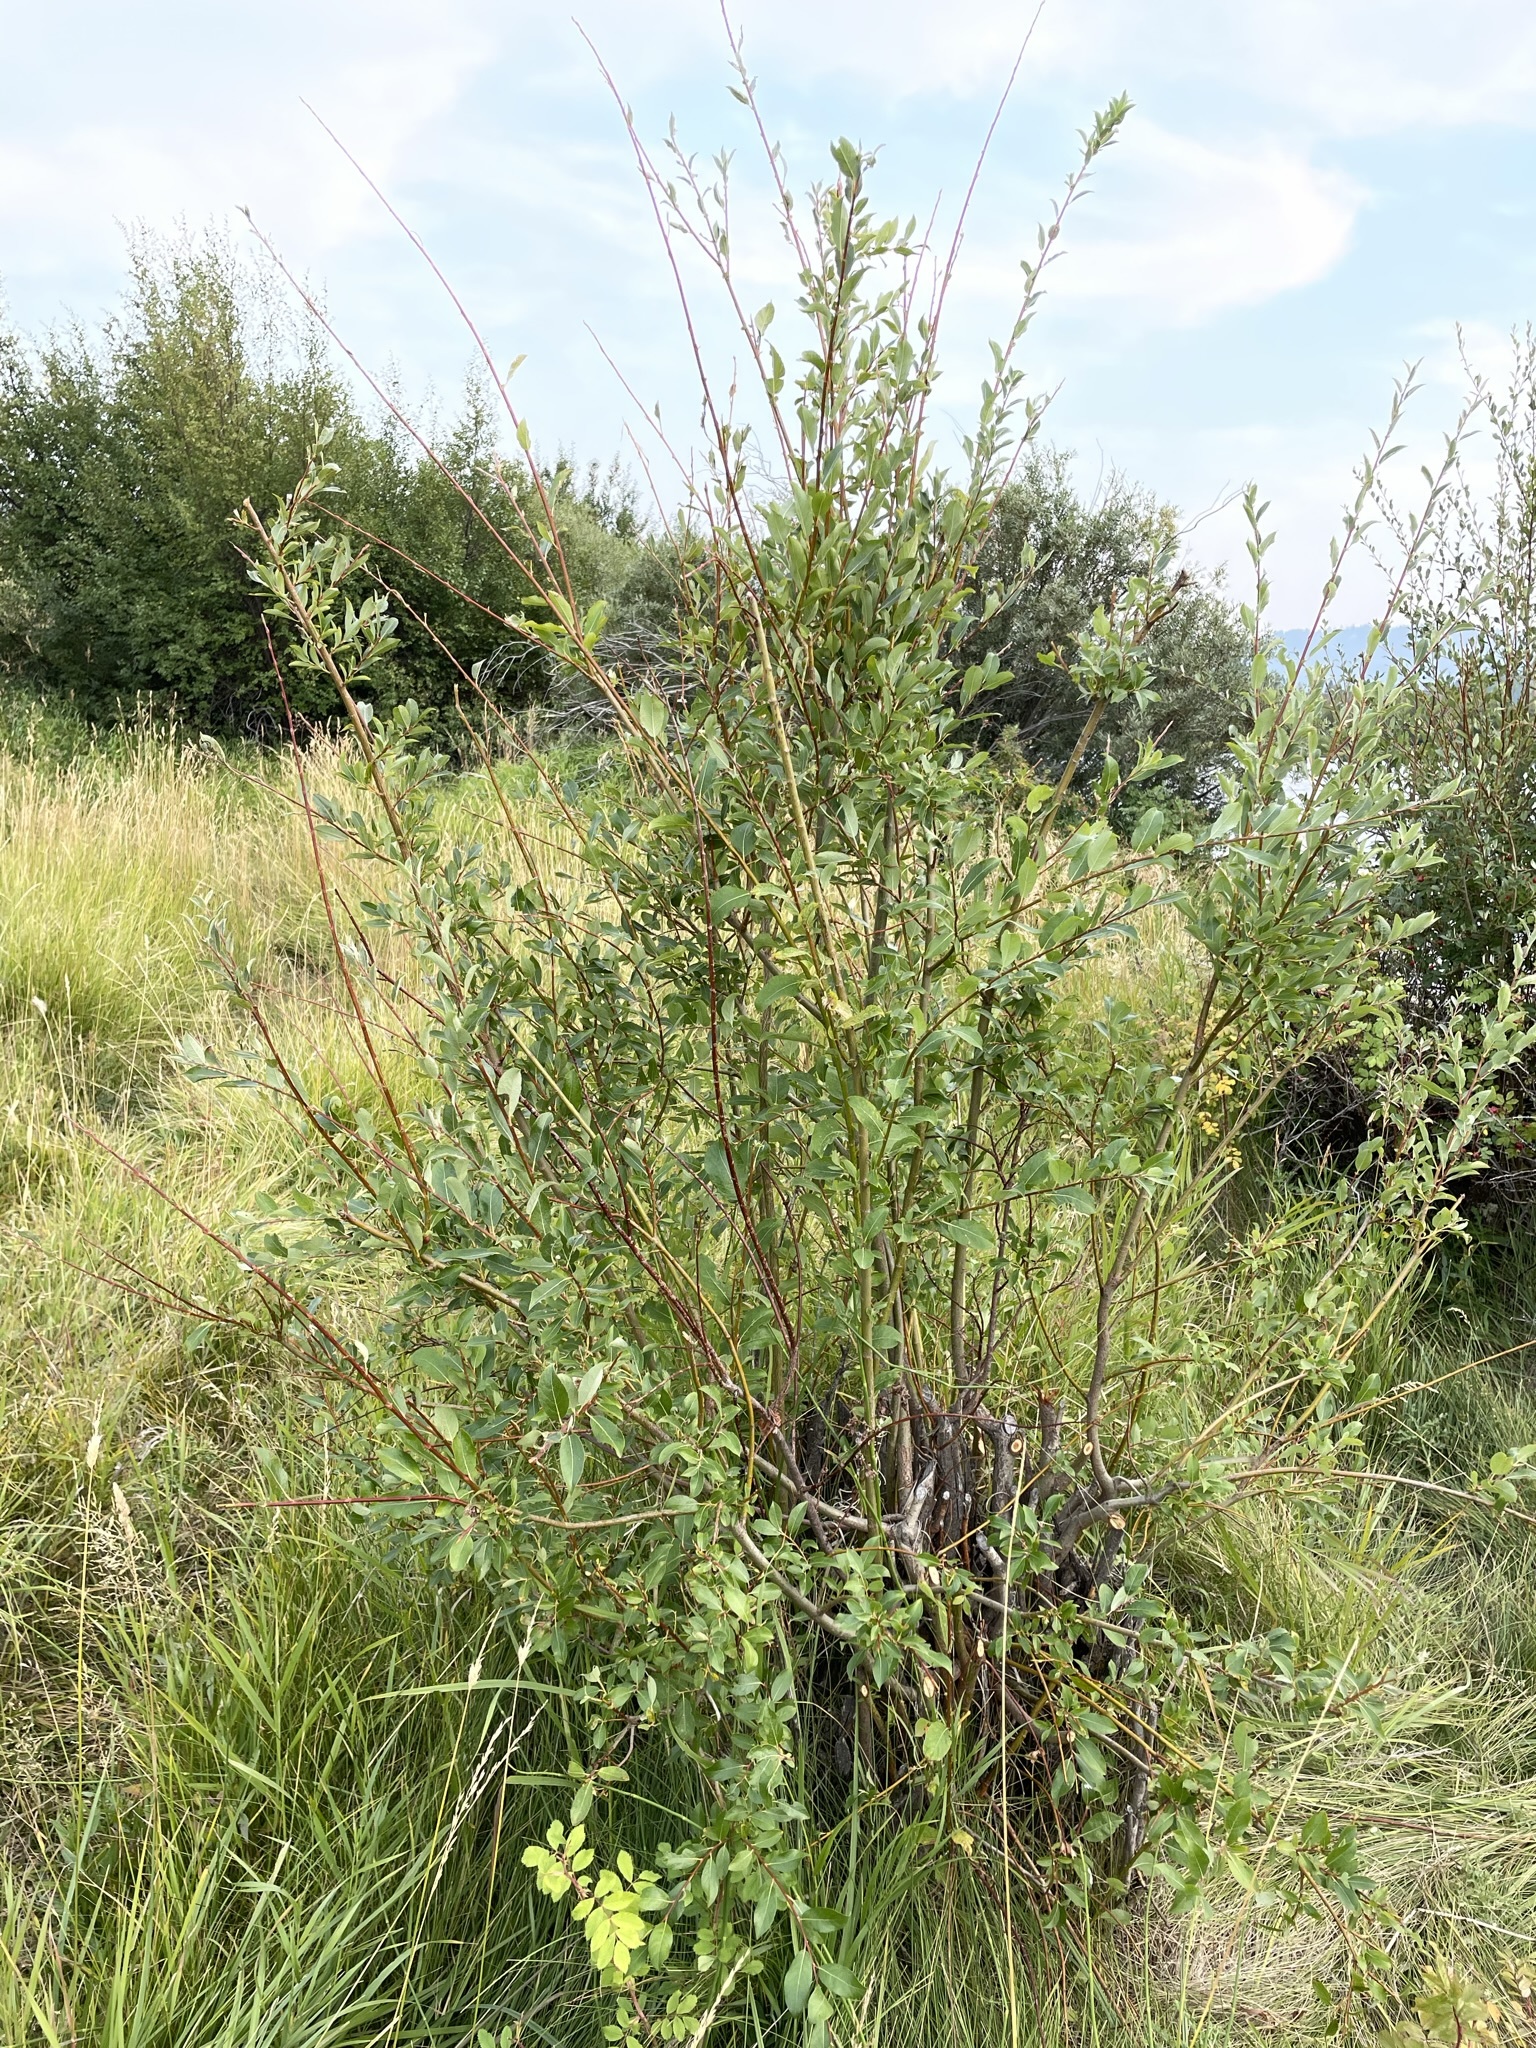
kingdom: Plantae
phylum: Tracheophyta
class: Magnoliopsida
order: Malpighiales
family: Salicaceae
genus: Salix
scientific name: Salix bebbiana
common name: Bebb's willow
